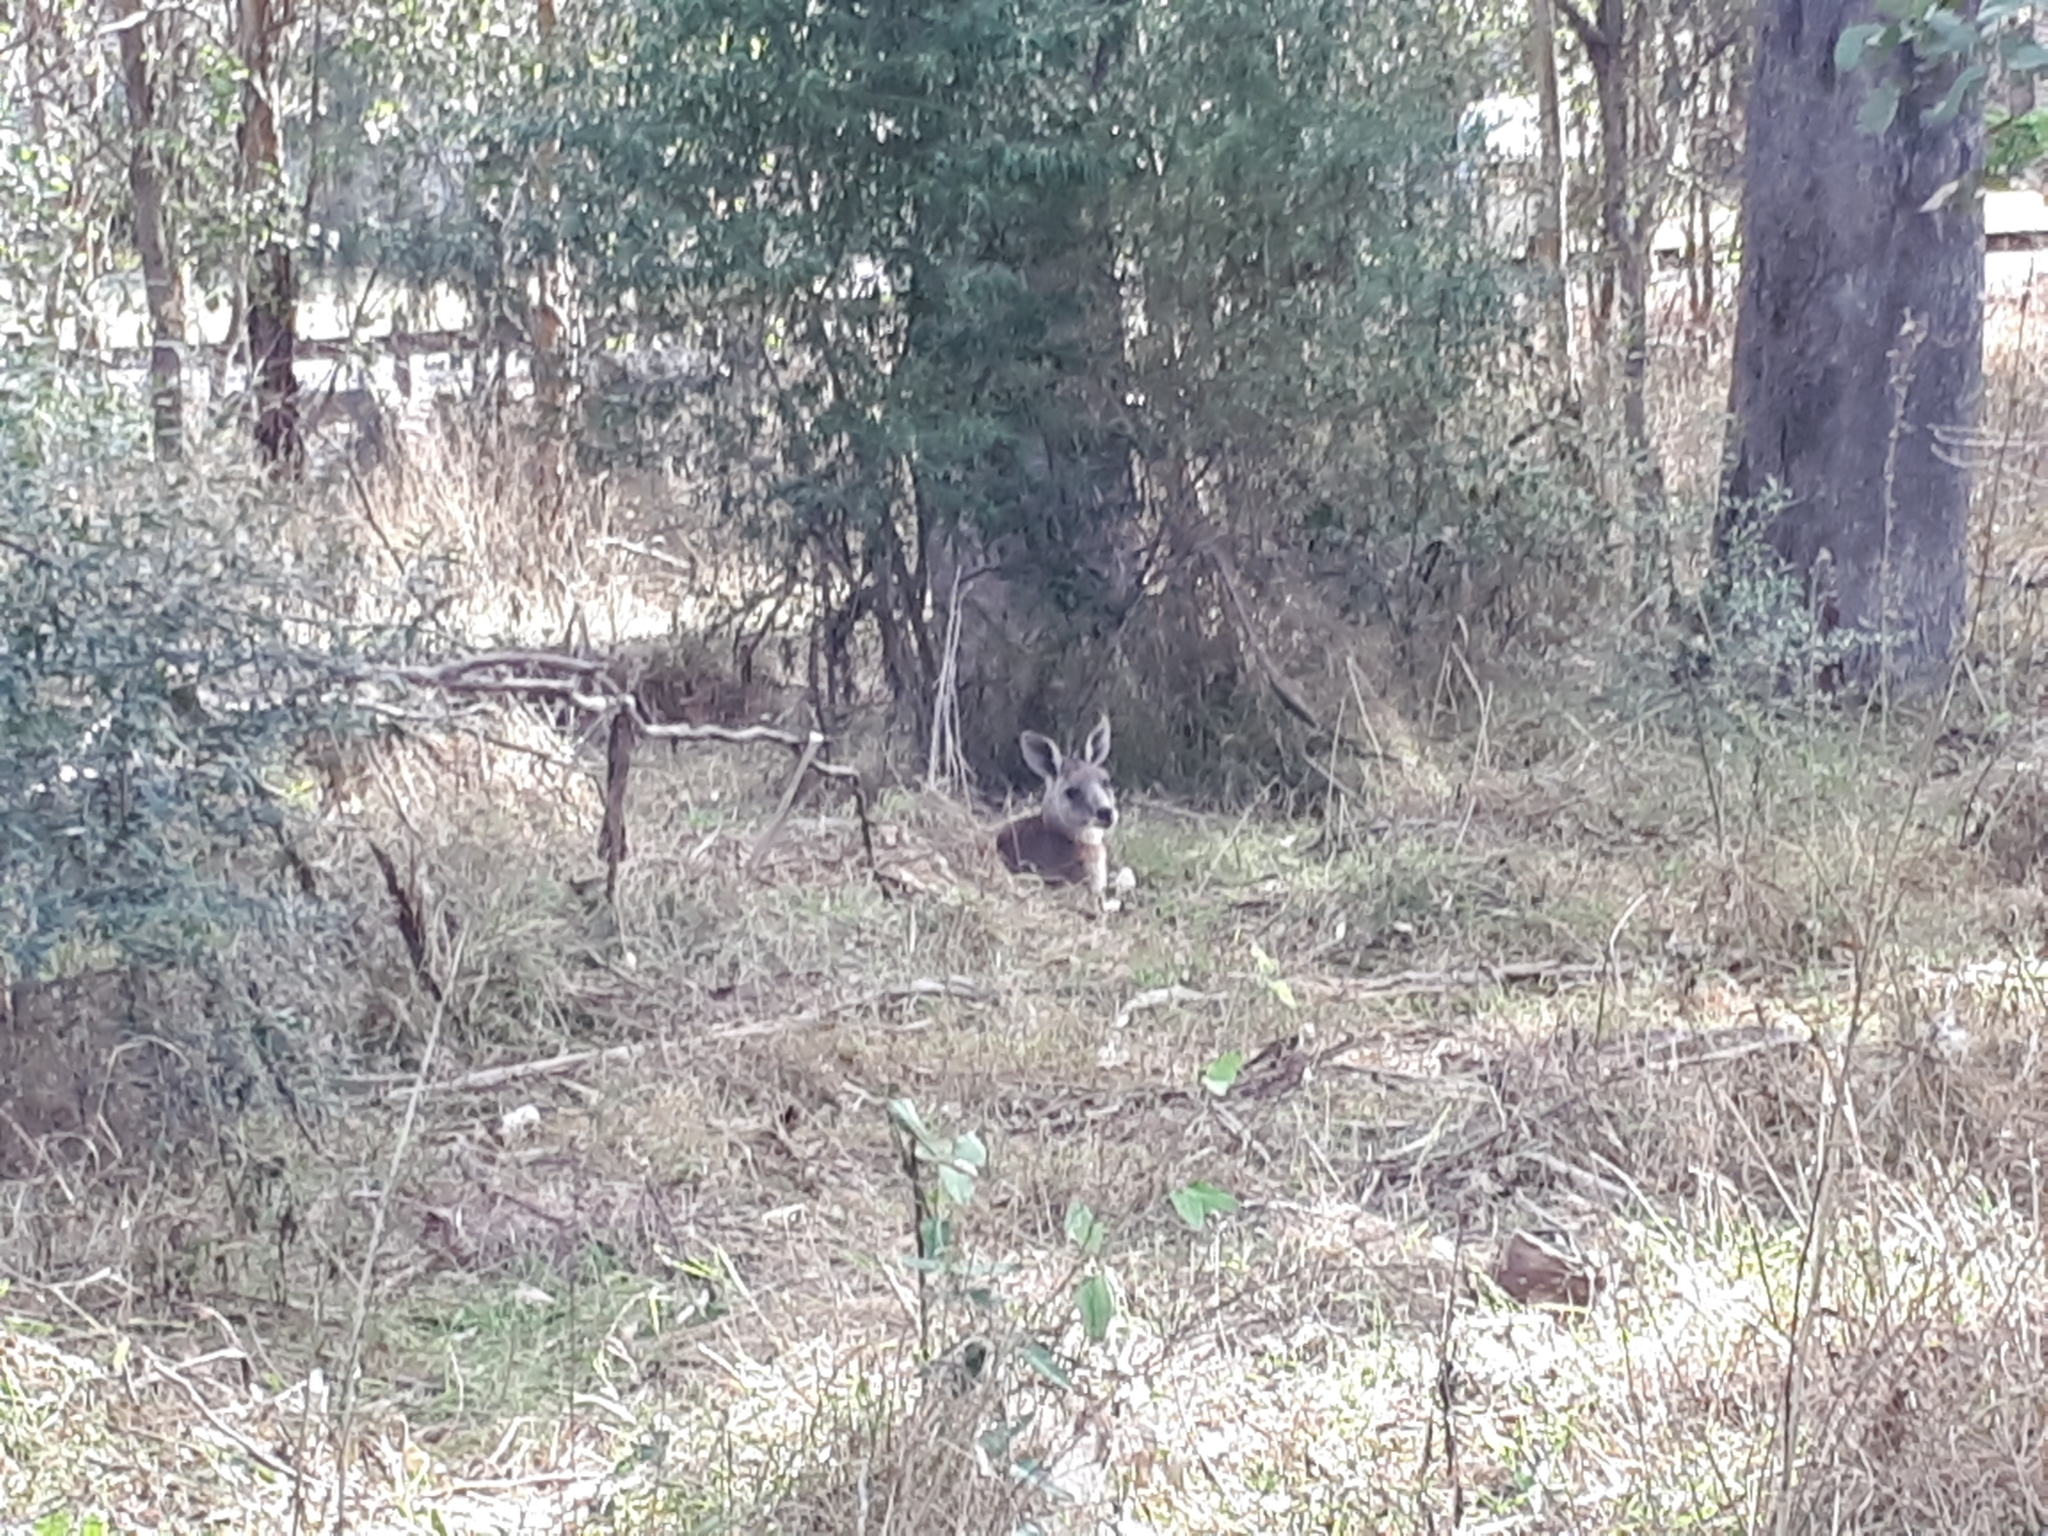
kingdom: Animalia
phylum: Chordata
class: Mammalia
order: Diprotodontia
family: Macropodidae
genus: Macropus
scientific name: Macropus giganteus
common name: Eastern grey kangaroo
